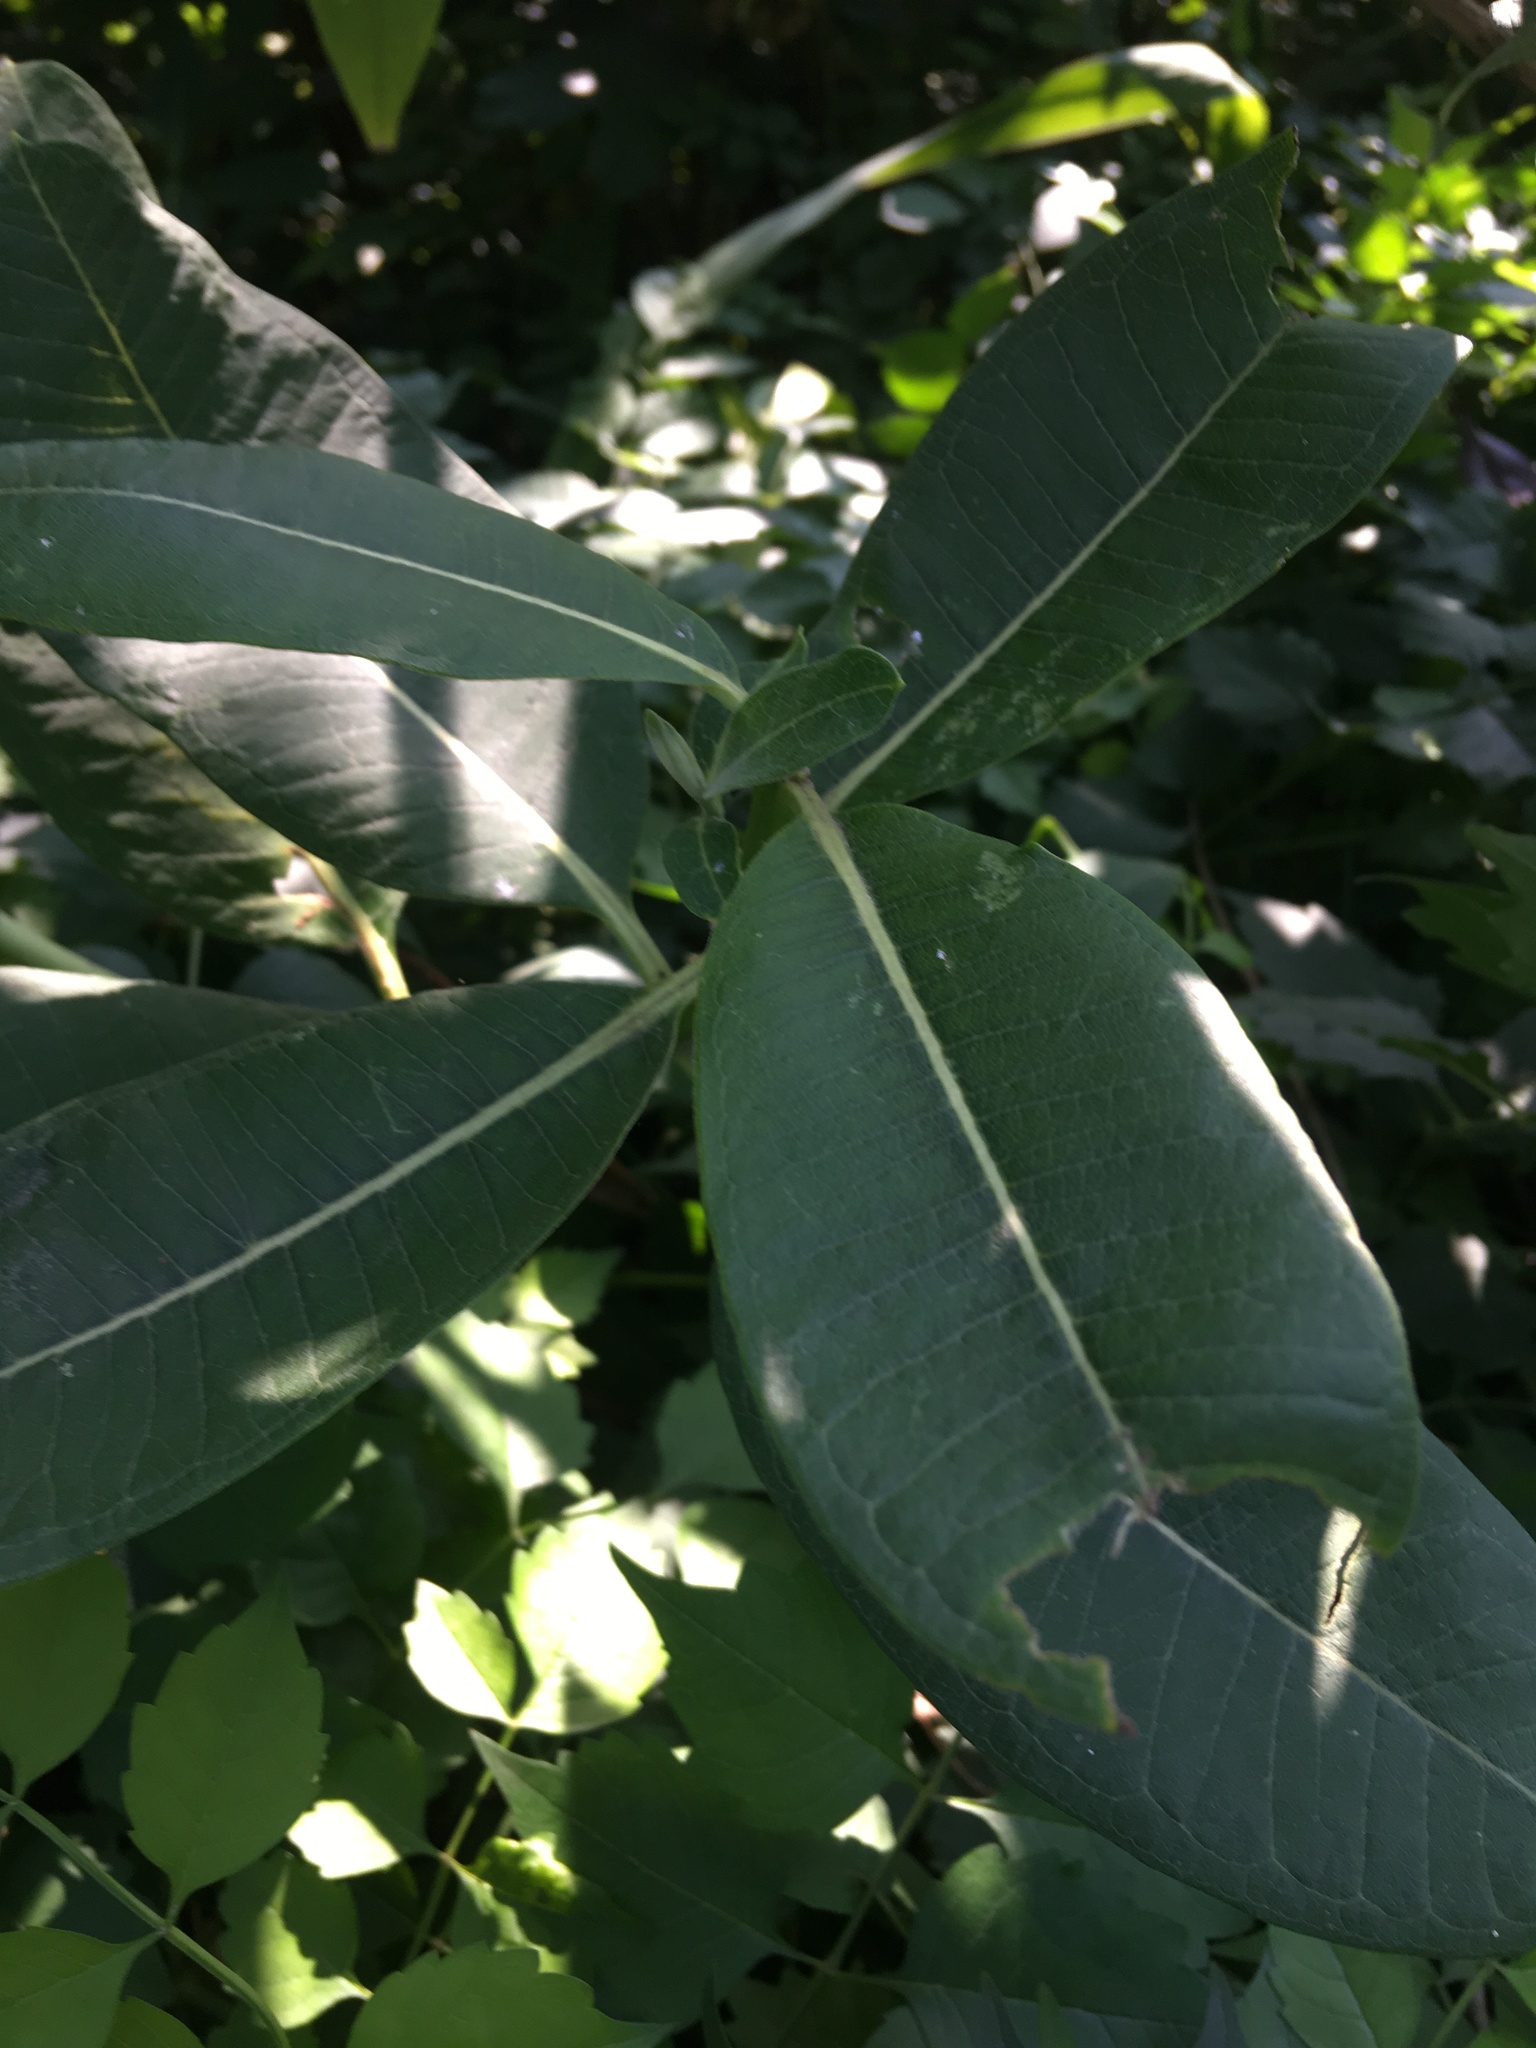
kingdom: Plantae
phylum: Tracheophyta
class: Magnoliopsida
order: Gentianales
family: Apocynaceae
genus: Asclepias
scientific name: Asclepias syriaca
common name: Common milkweed
